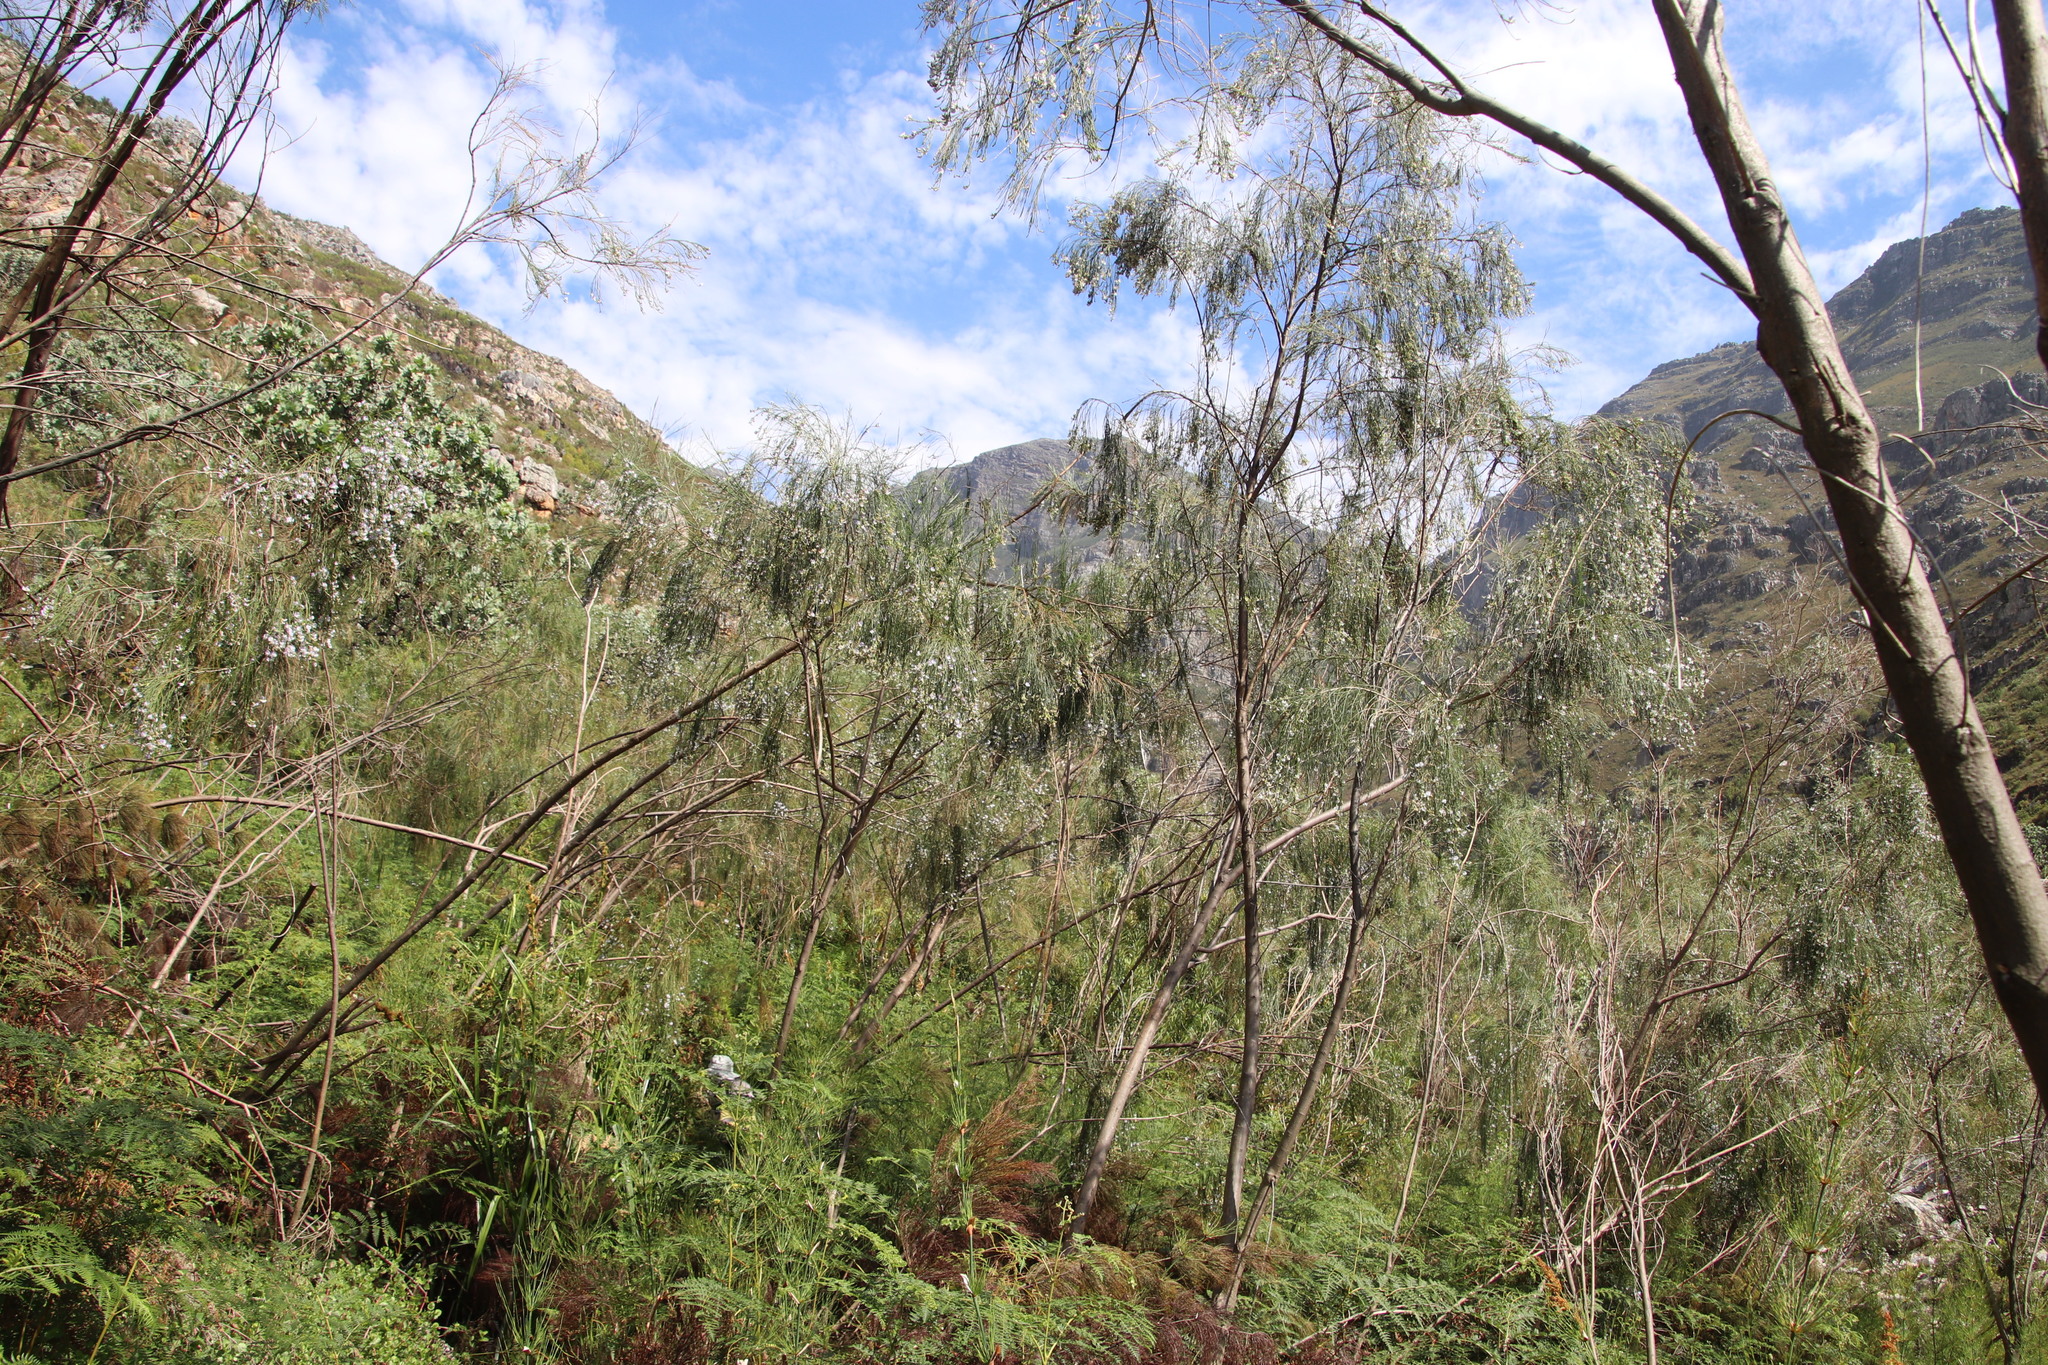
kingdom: Plantae
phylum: Tracheophyta
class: Magnoliopsida
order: Fabales
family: Fabaceae
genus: Psoralea
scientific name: Psoralea fleta
